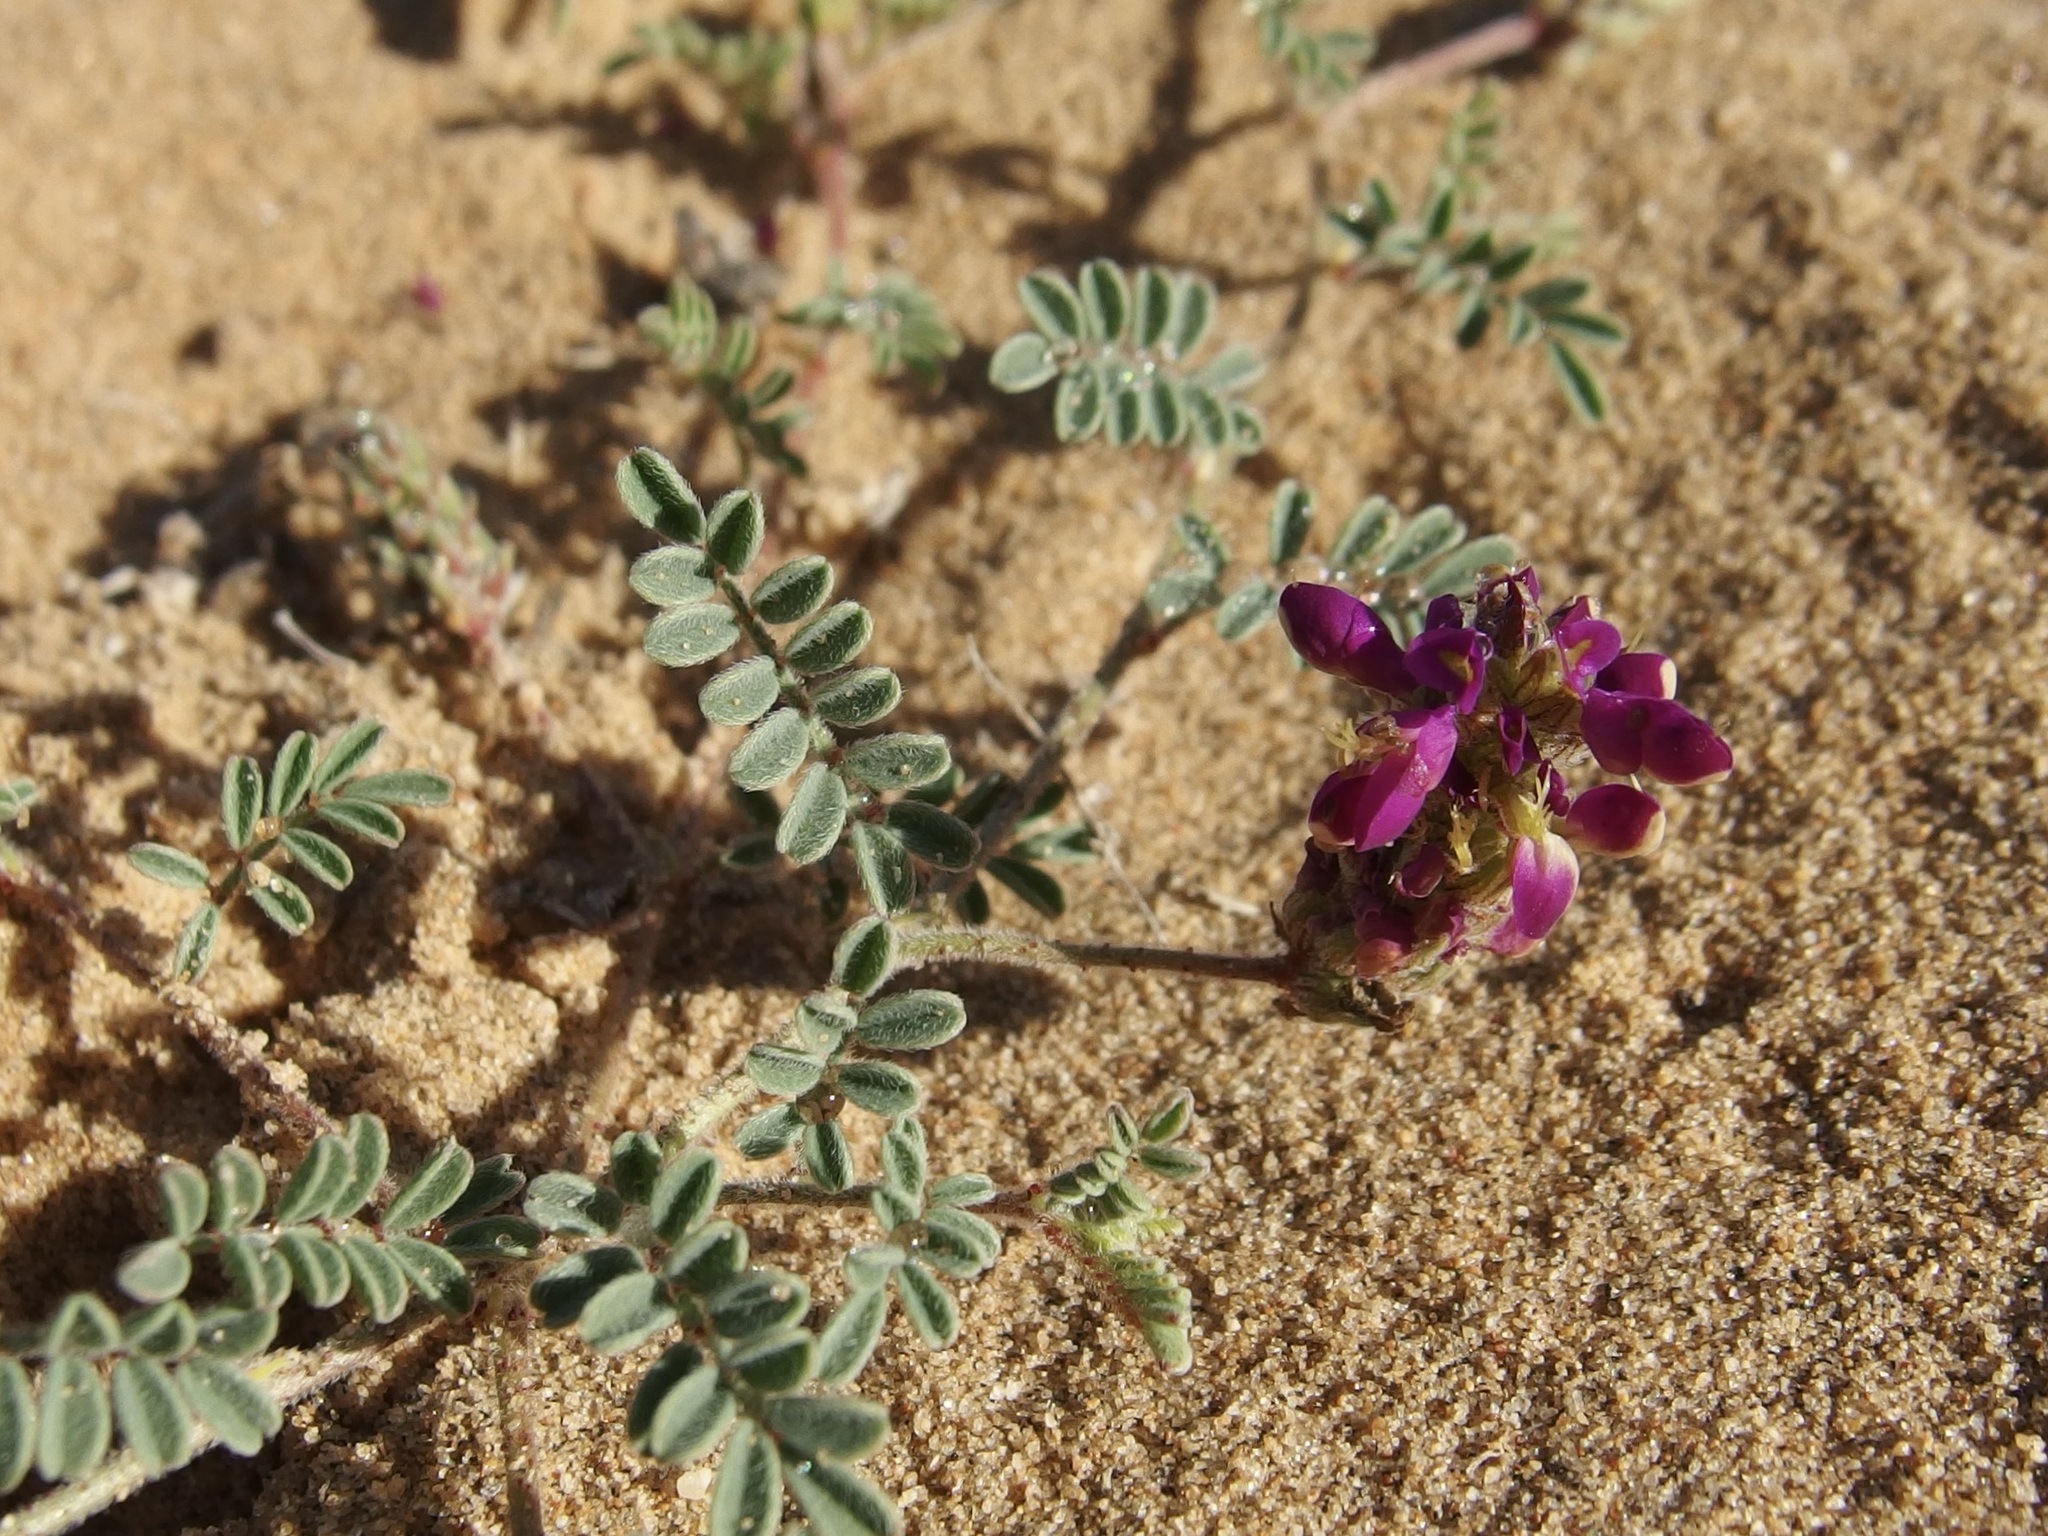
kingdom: Plantae
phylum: Tracheophyta
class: Magnoliopsida
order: Fabales
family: Fabaceae
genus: Marina
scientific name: Marina peninsularis
